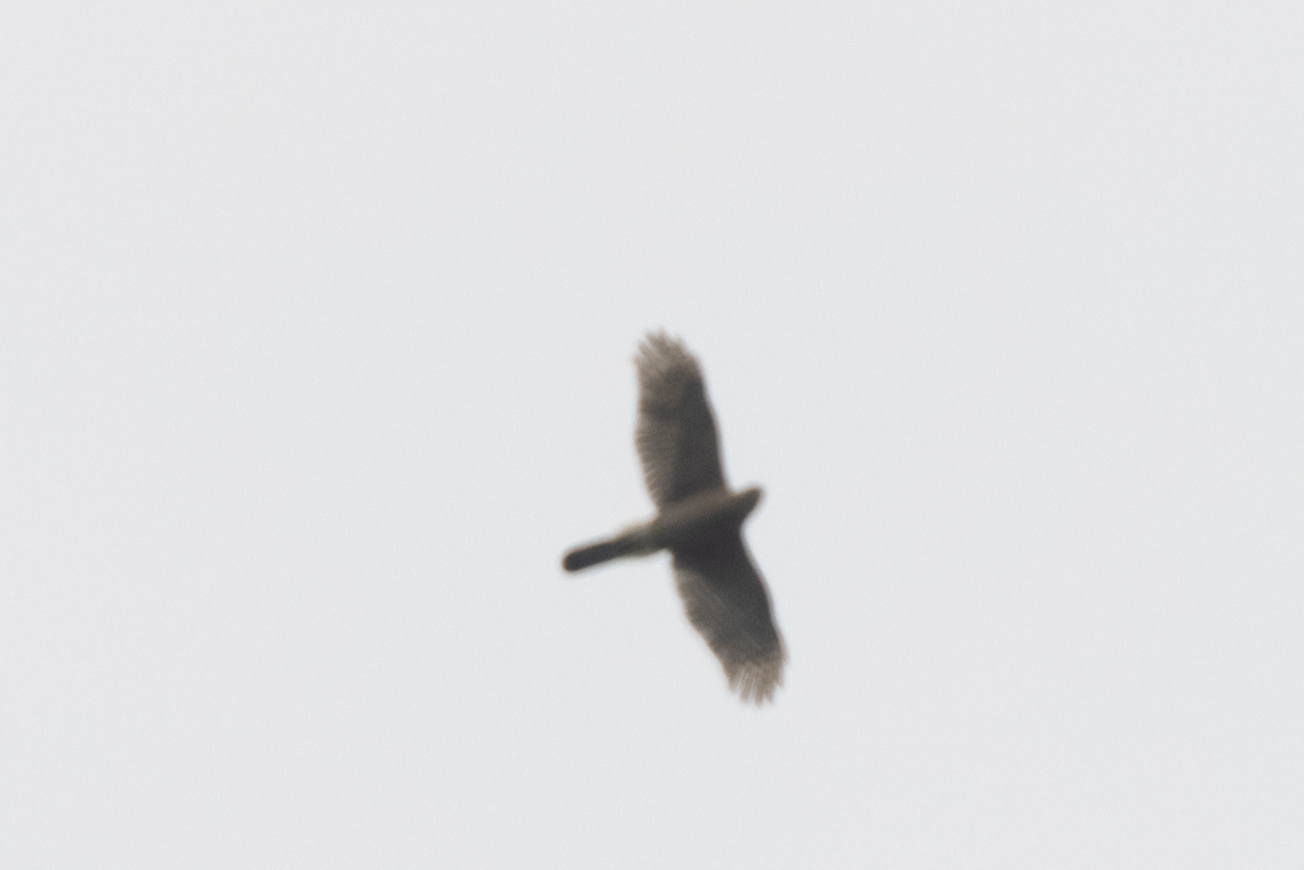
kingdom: Animalia
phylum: Chordata
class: Aves
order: Accipitriformes
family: Accipitridae
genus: Accipiter
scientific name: Accipiter cooperii
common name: Cooper's hawk
